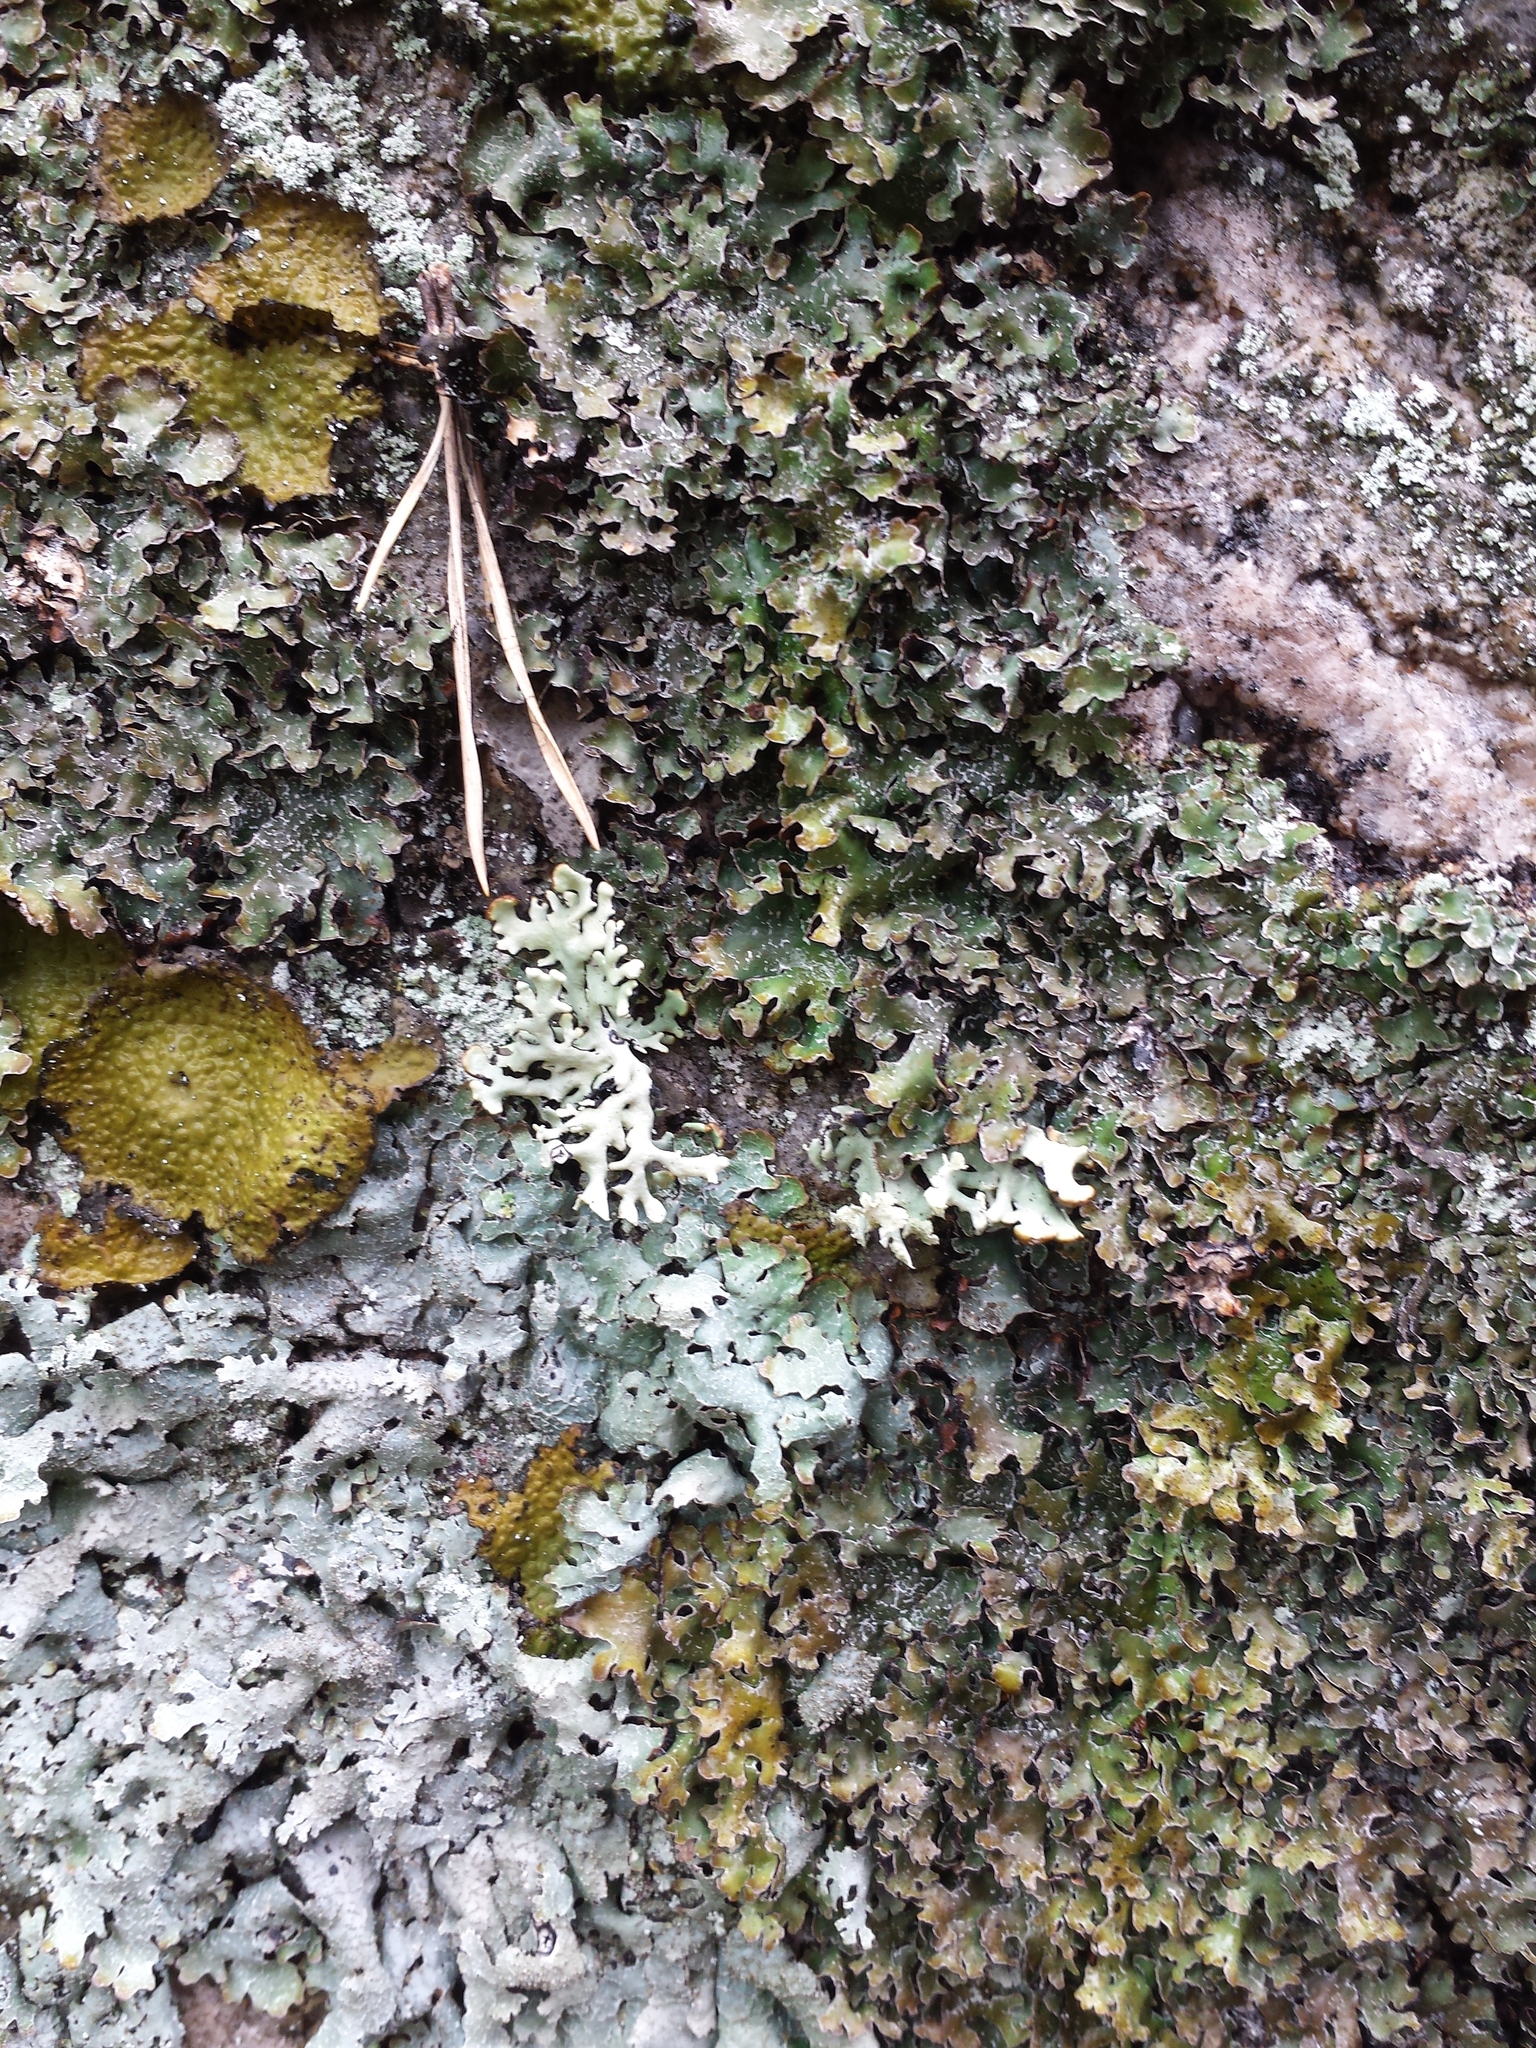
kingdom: Fungi
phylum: Ascomycota
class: Lecanoromycetes
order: Lecanorales
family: Parmeliaceae
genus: Hypogymnia
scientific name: Hypogymnia physodes
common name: Dark crottle
